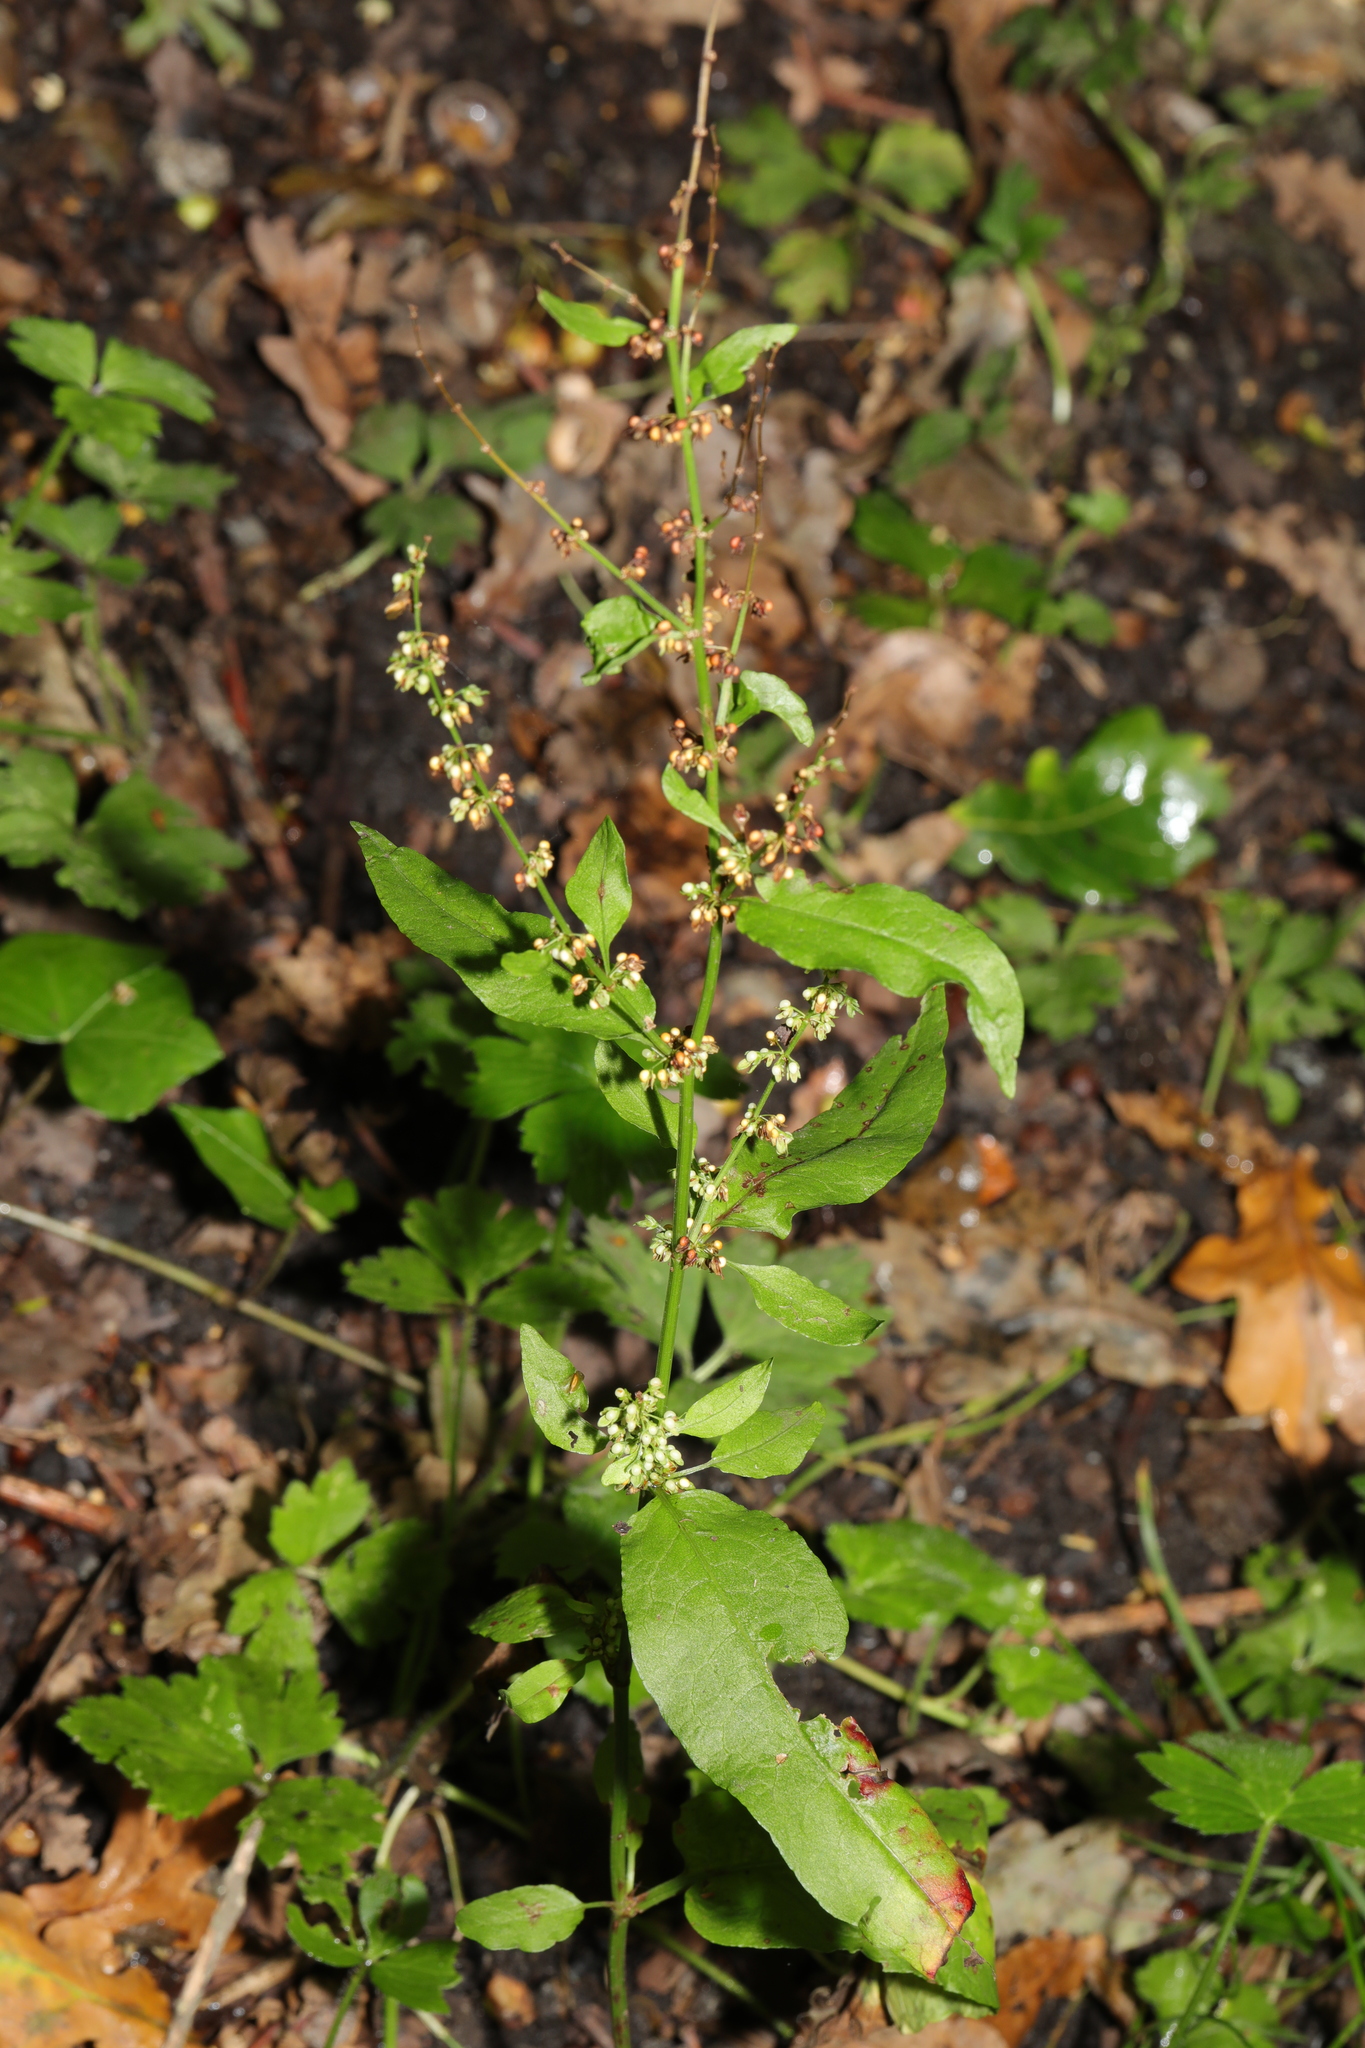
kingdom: Plantae
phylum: Tracheophyta
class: Magnoliopsida
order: Caryophyllales
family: Polygonaceae
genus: Rumex
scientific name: Rumex sanguineus
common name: Wood dock
